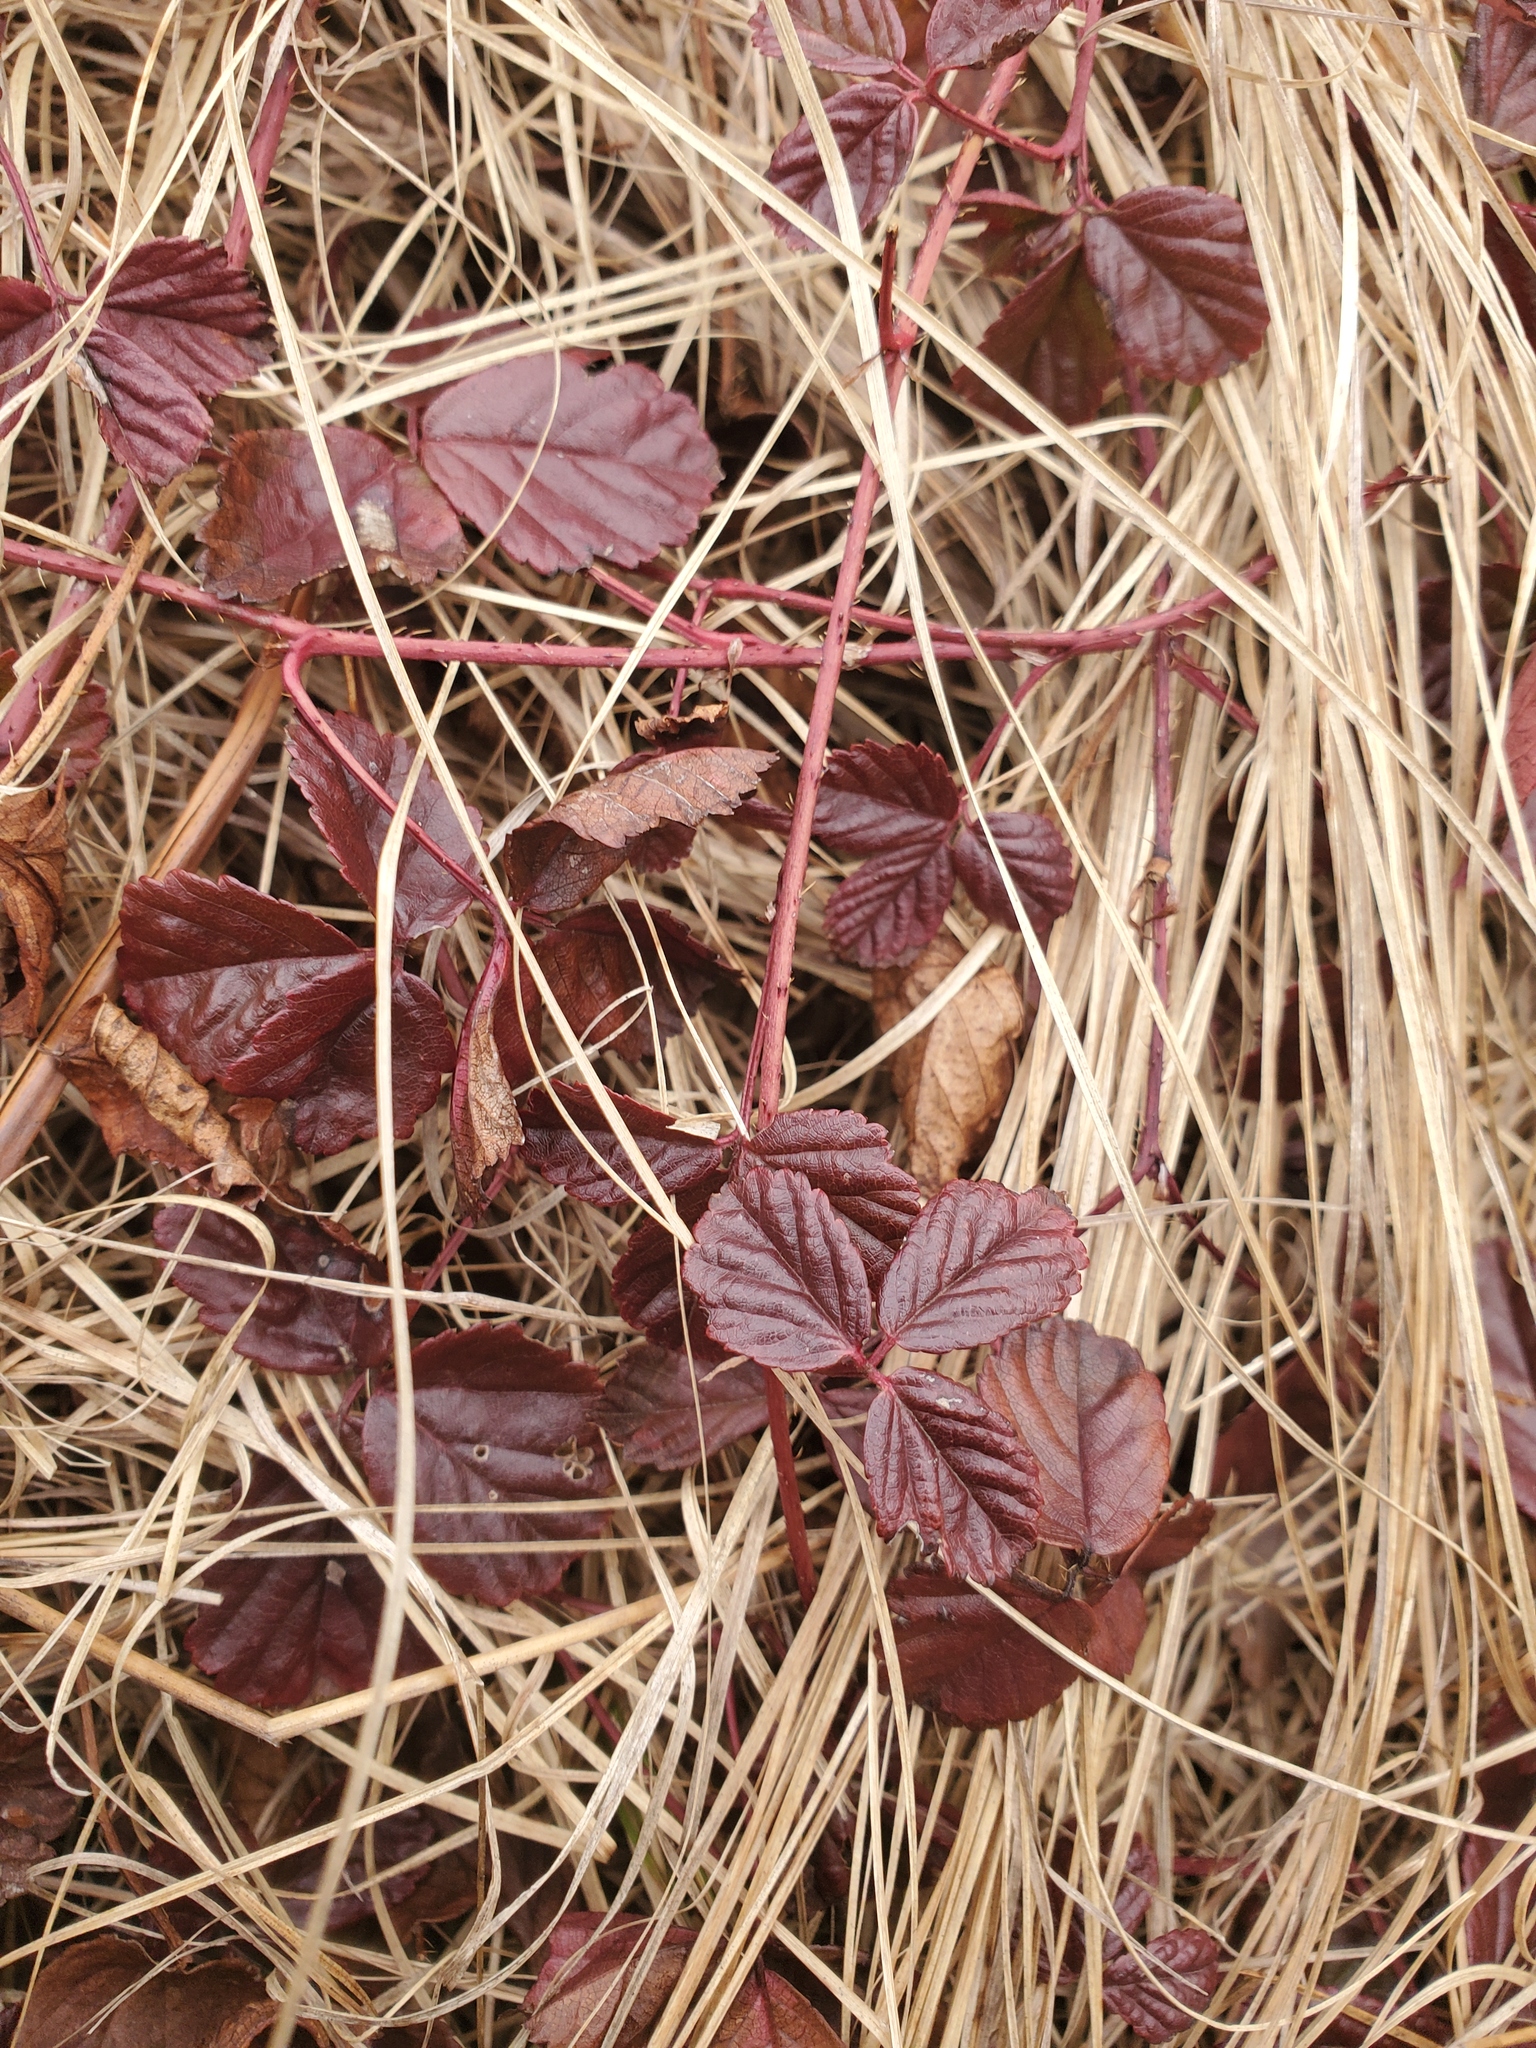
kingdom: Plantae
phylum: Tracheophyta
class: Magnoliopsida
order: Rosales
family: Rosaceae
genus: Rubus
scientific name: Rubus hispidus
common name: Running blackberry
